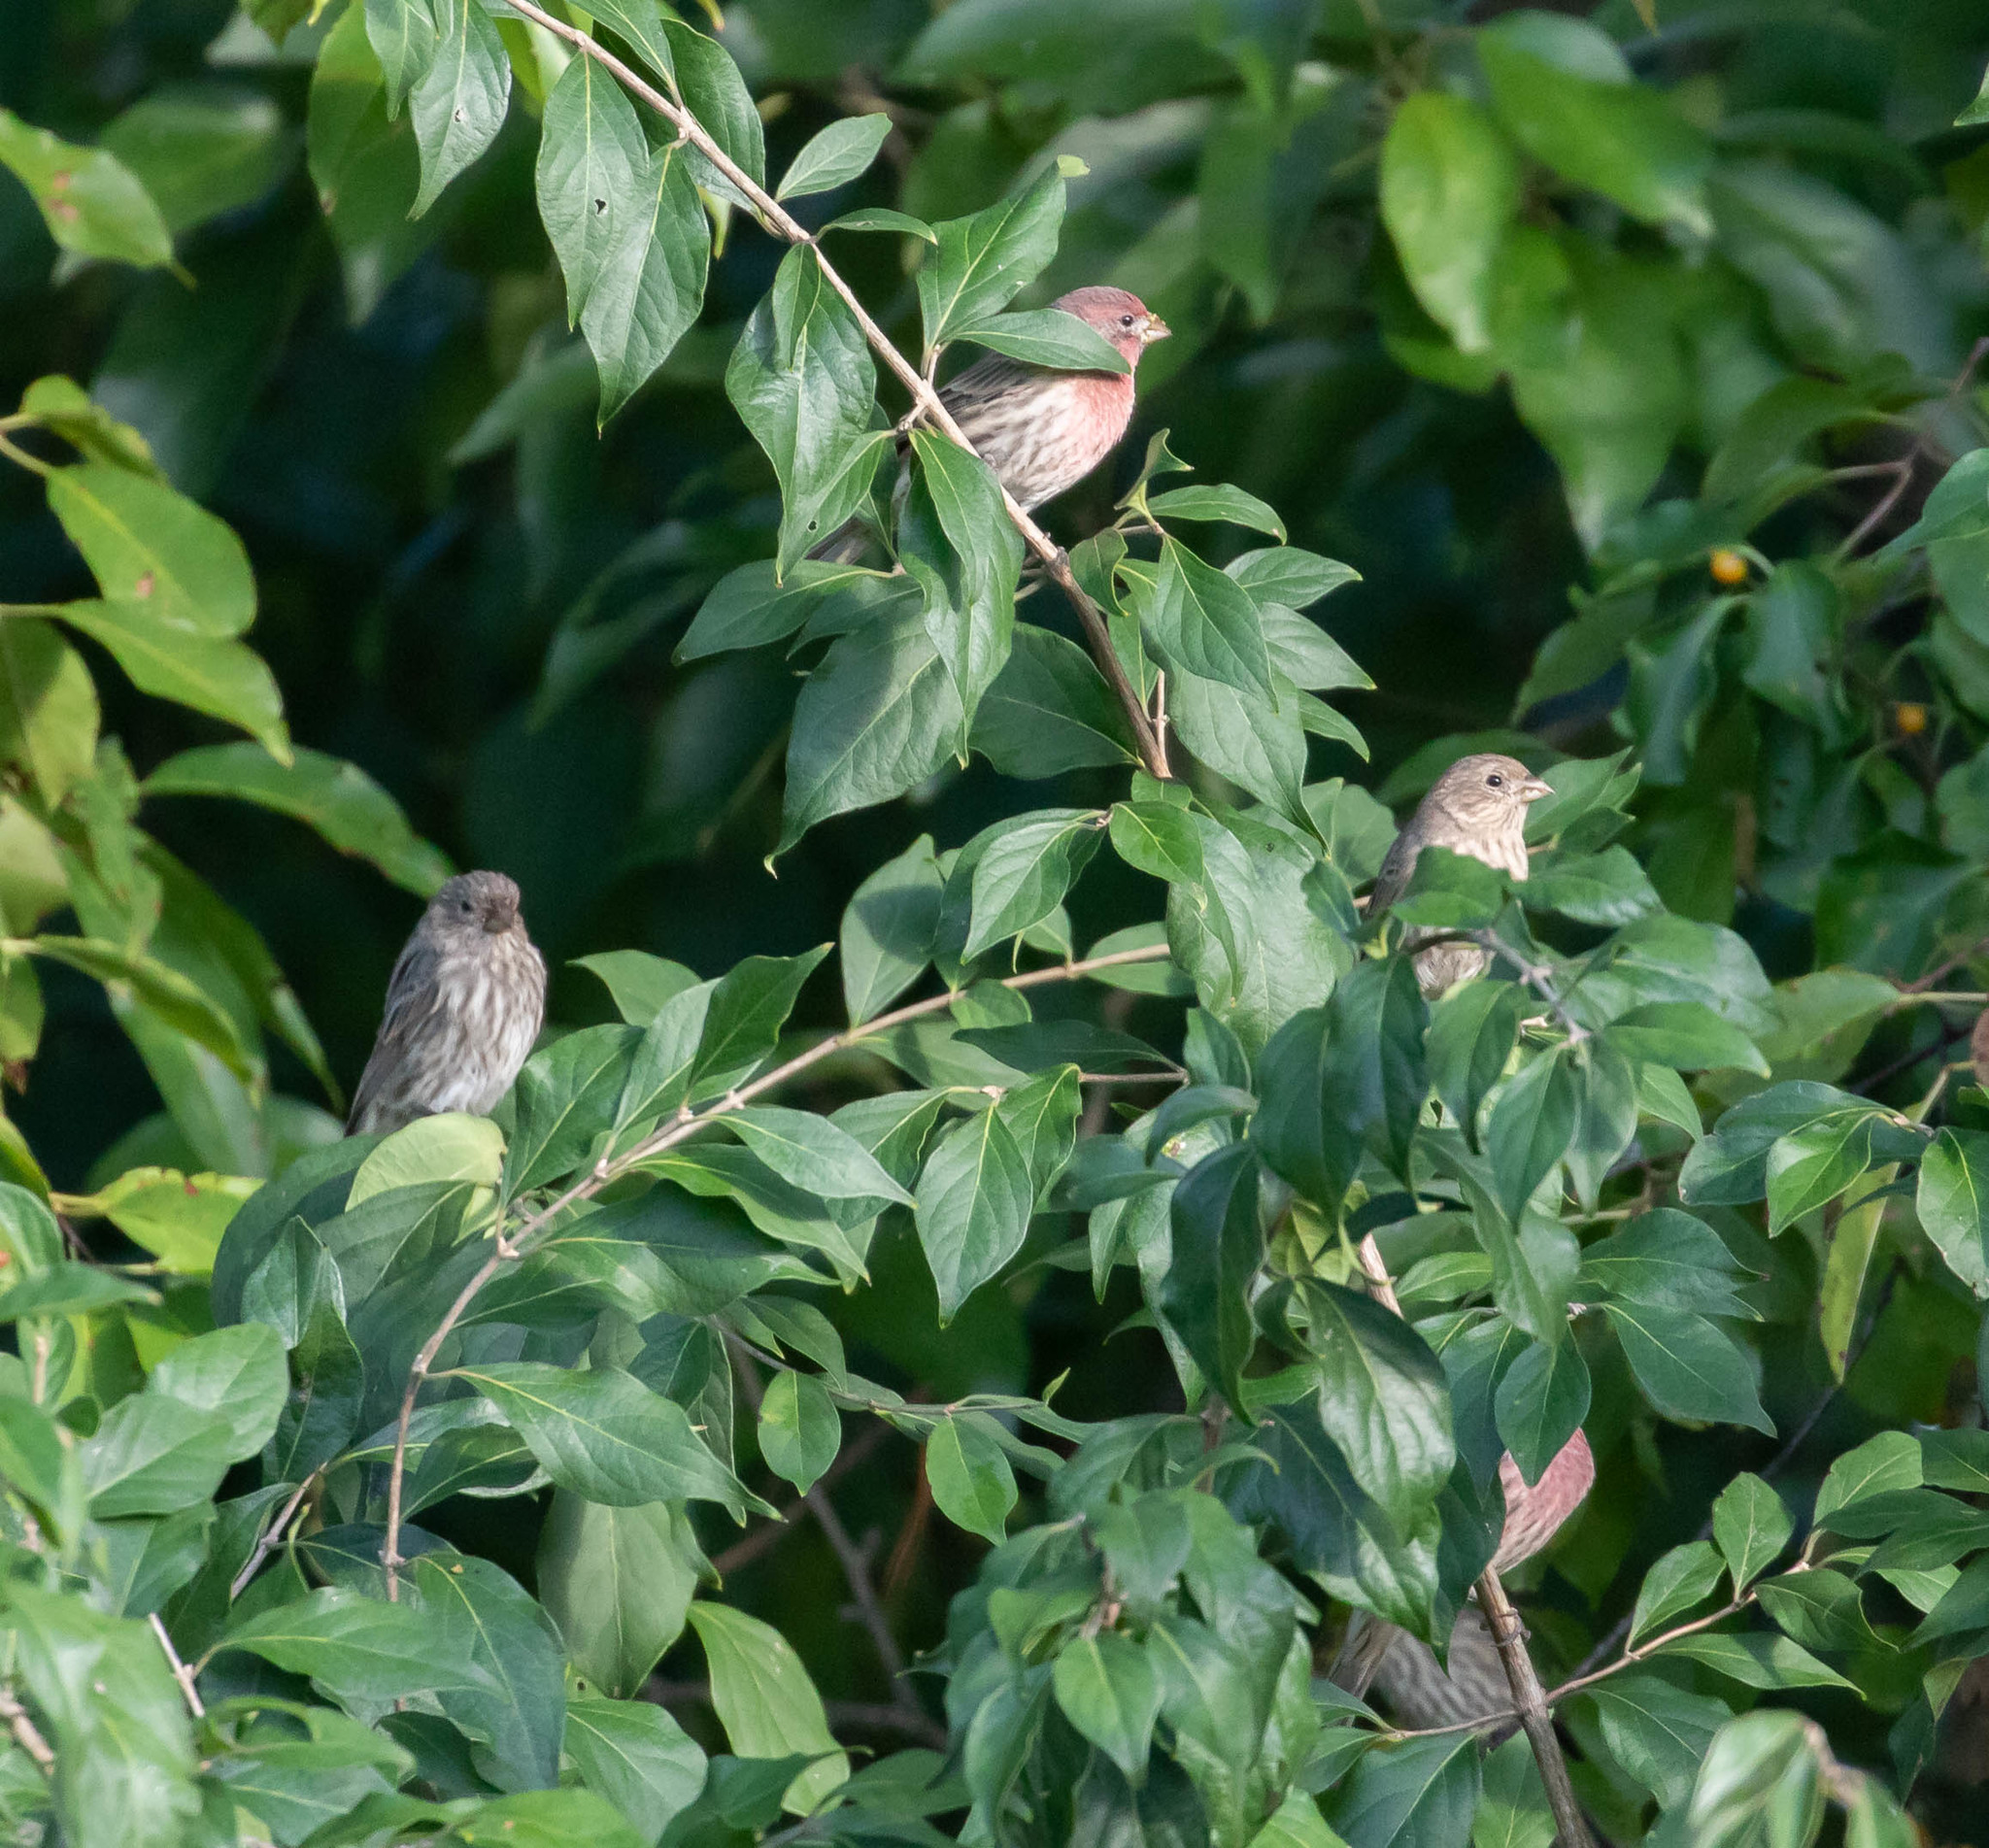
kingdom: Animalia
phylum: Chordata
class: Aves
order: Passeriformes
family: Fringillidae
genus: Haemorhous
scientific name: Haemorhous mexicanus
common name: House finch
